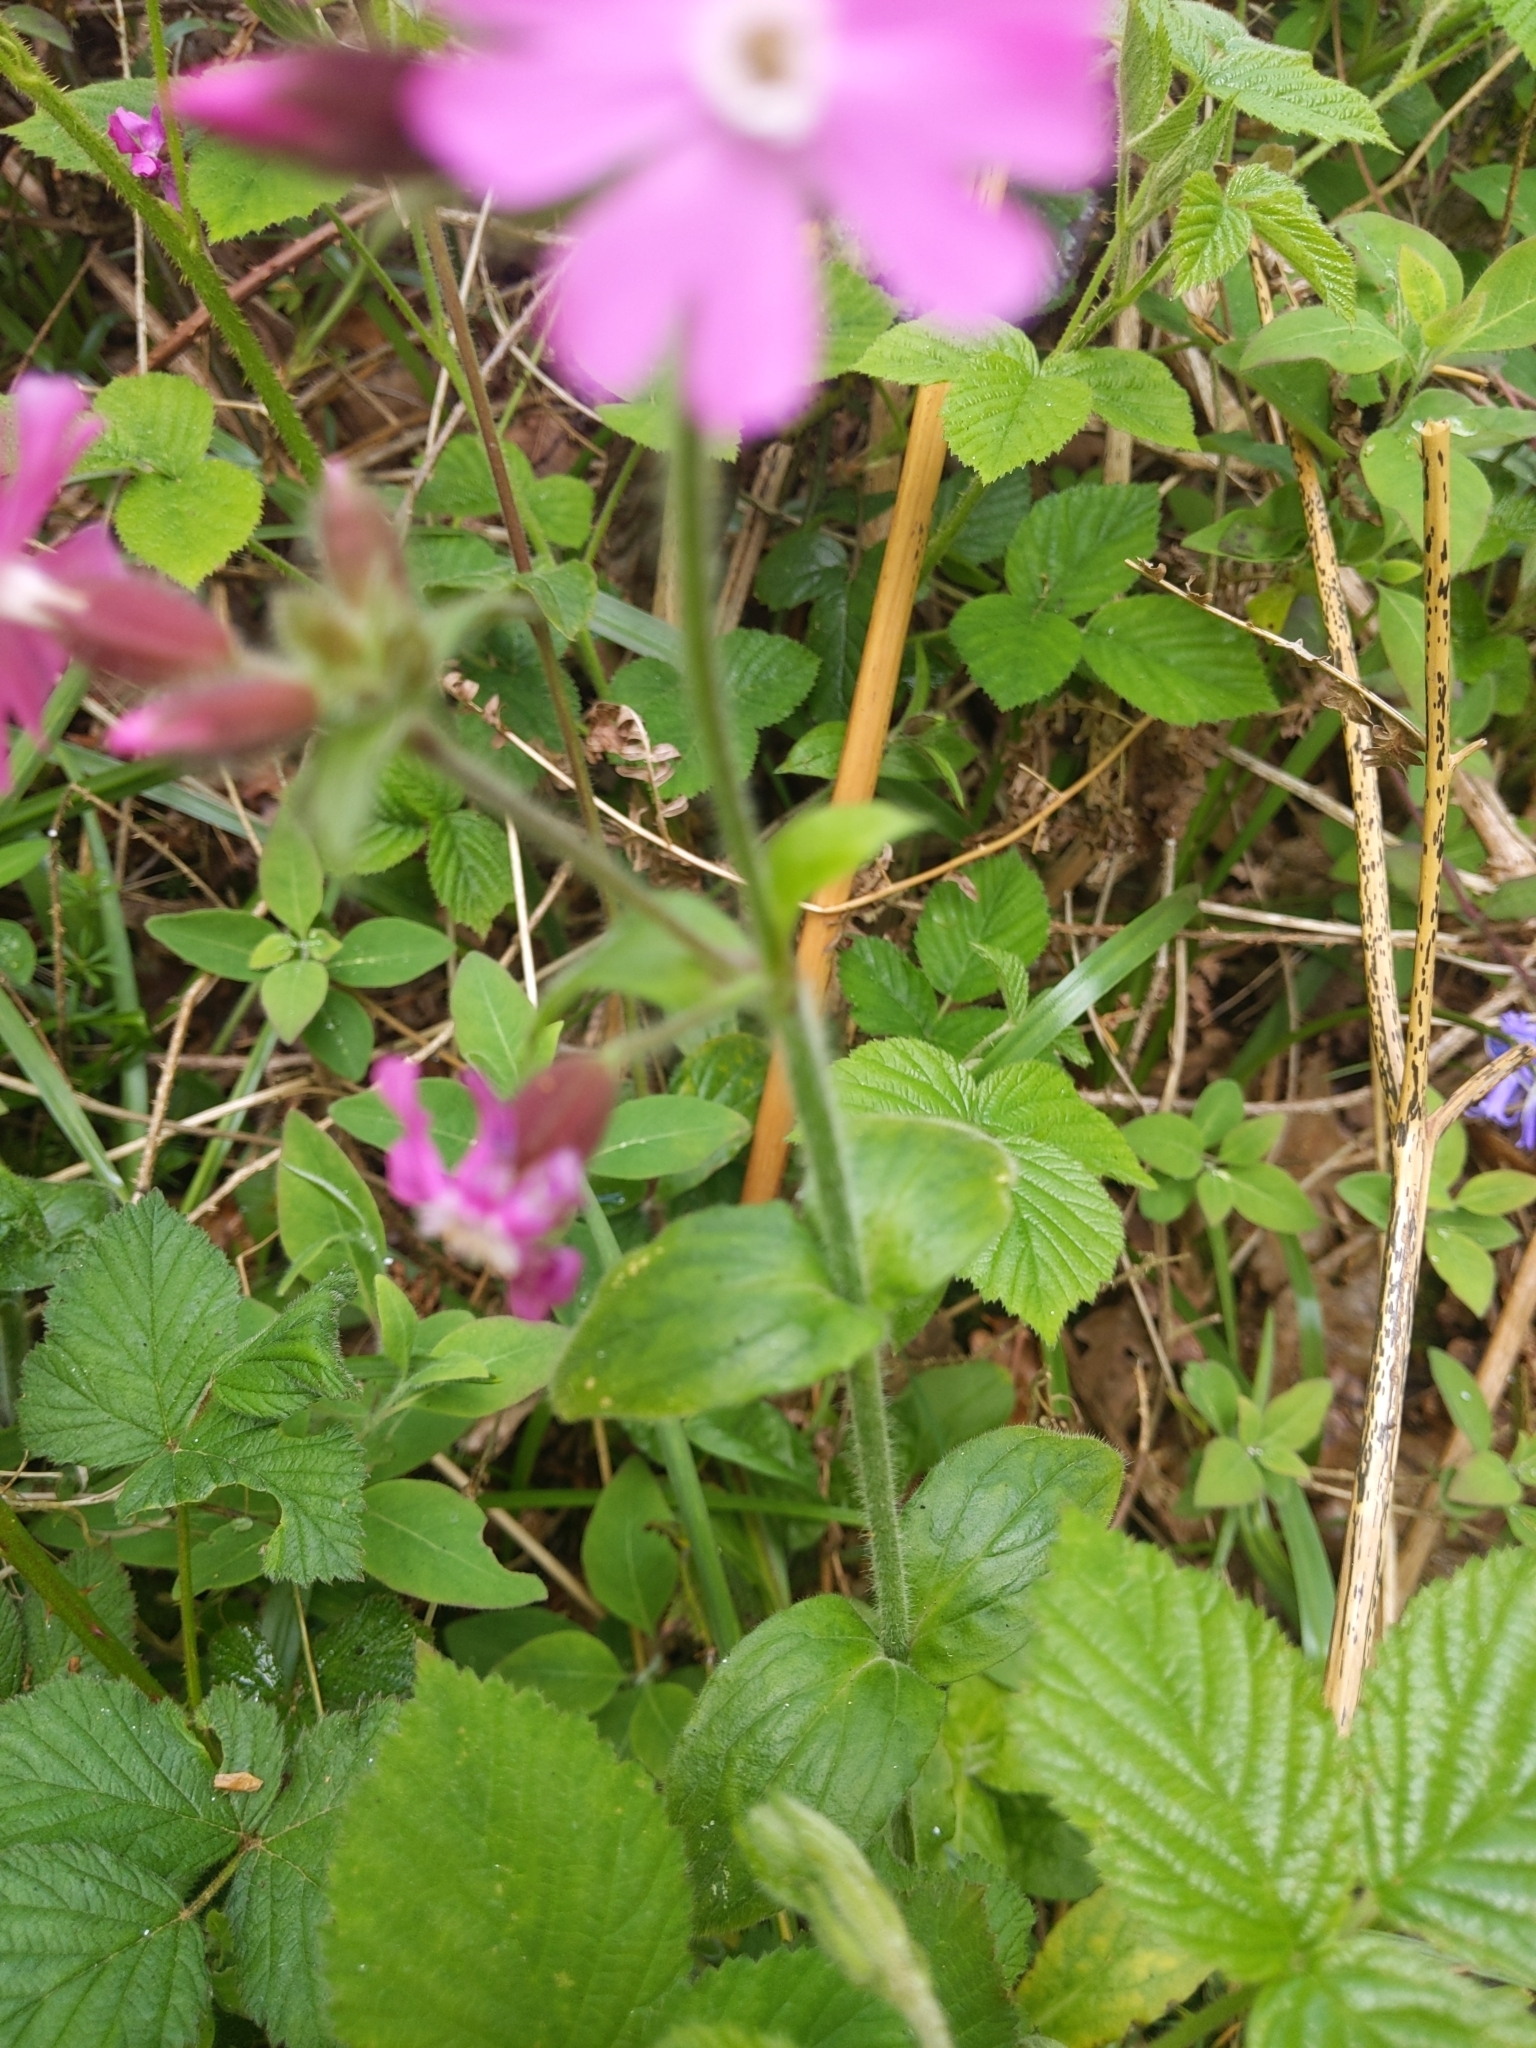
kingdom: Plantae
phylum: Tracheophyta
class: Magnoliopsida
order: Caryophyllales
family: Caryophyllaceae
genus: Silene
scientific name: Silene dioica
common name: Red campion
